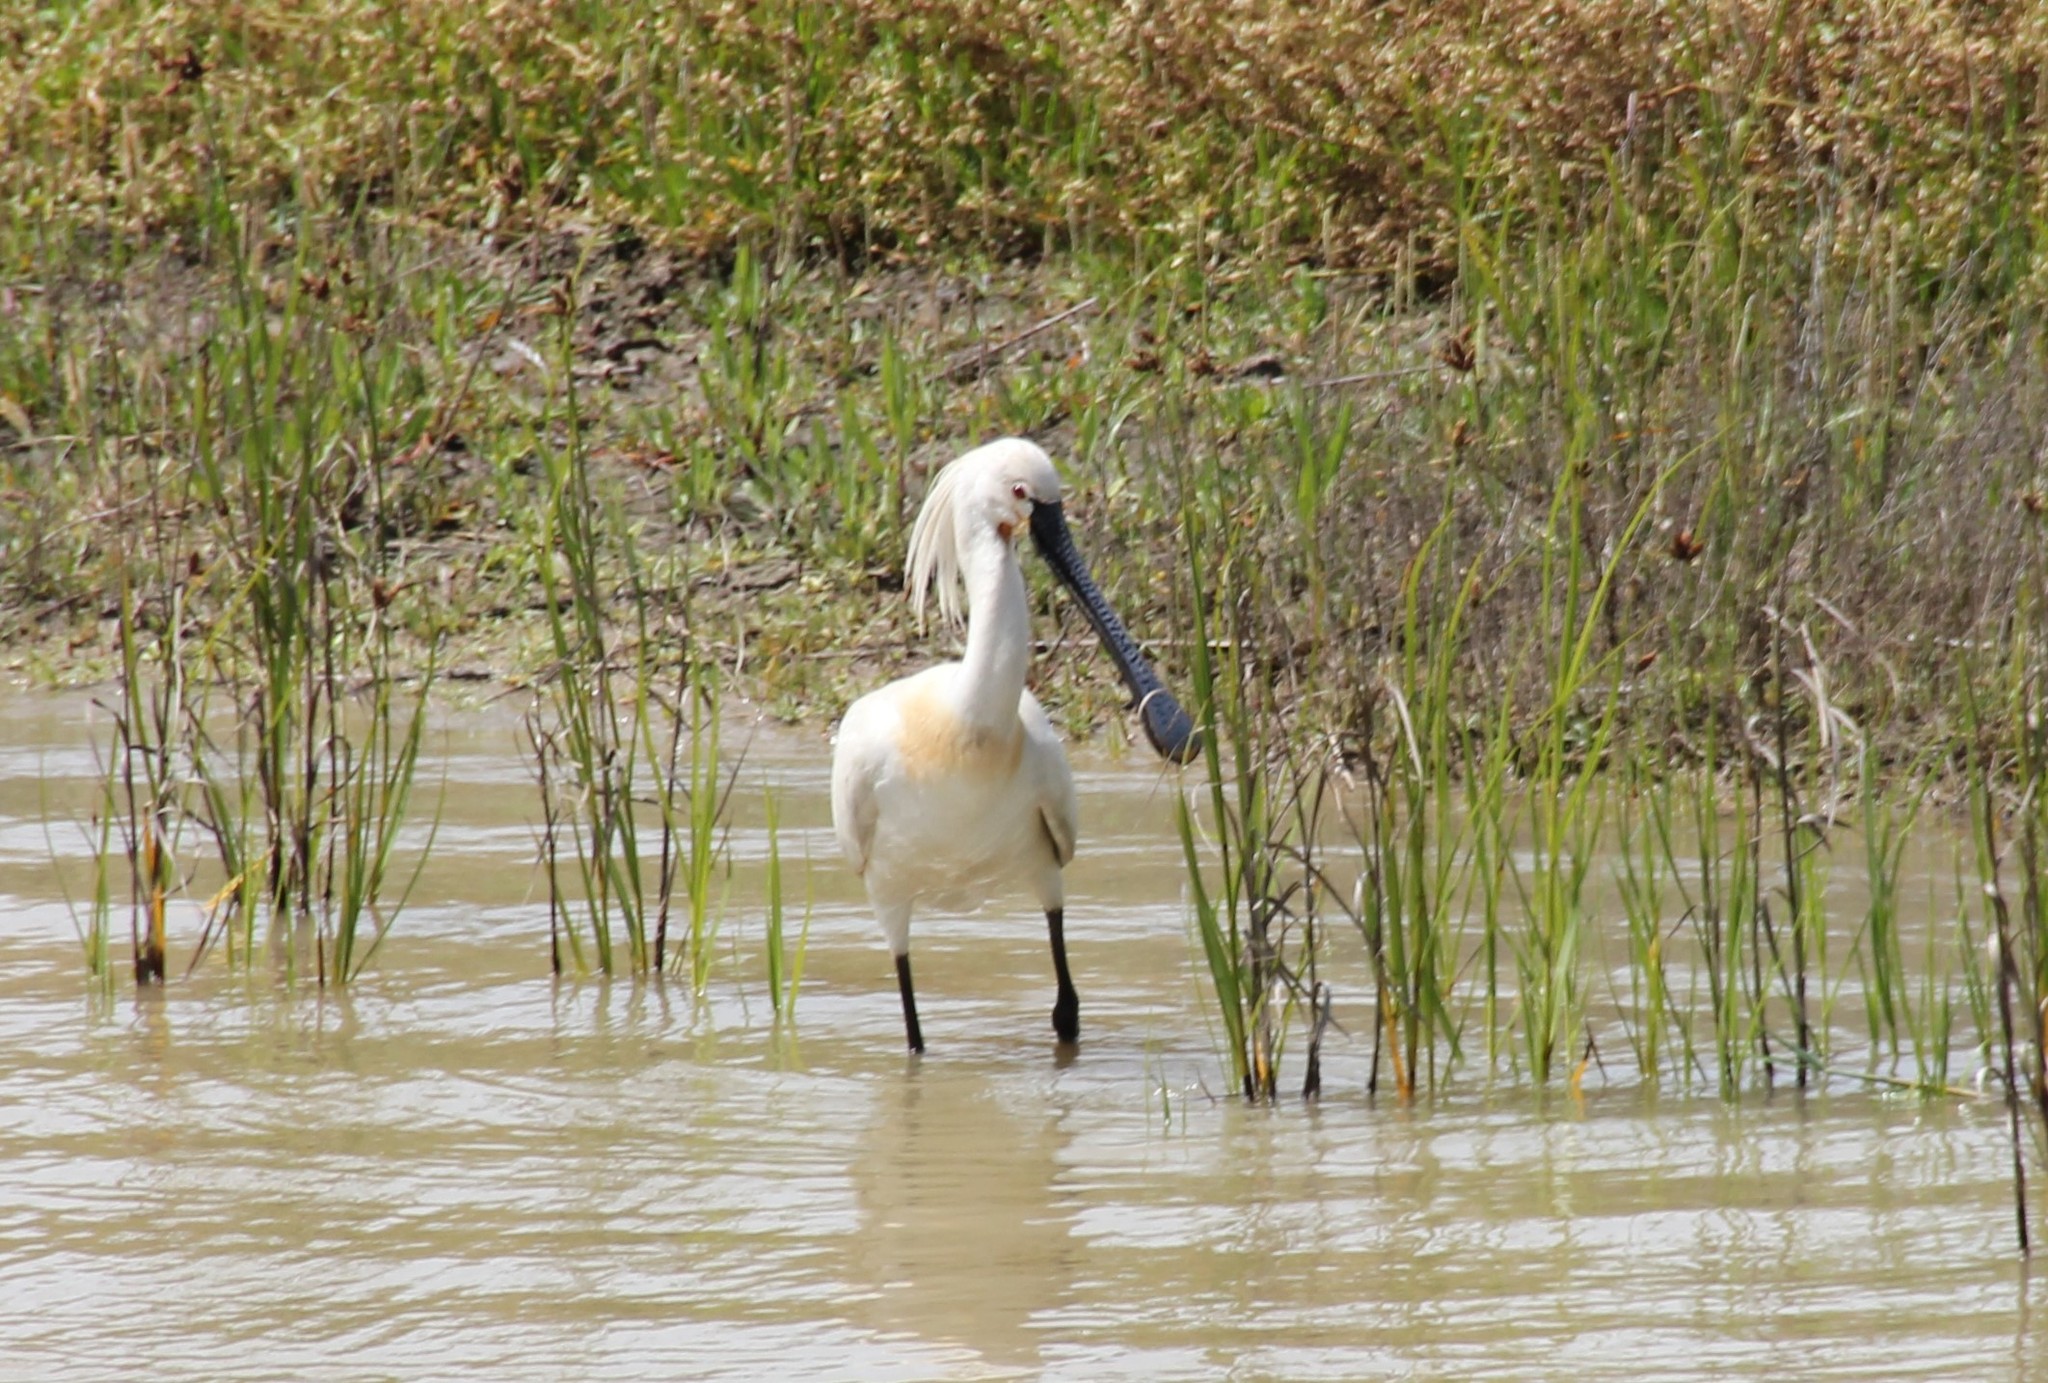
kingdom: Animalia
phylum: Chordata
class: Aves
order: Pelecaniformes
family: Threskiornithidae
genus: Platalea
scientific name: Platalea leucorodia
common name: Eurasian spoonbill
